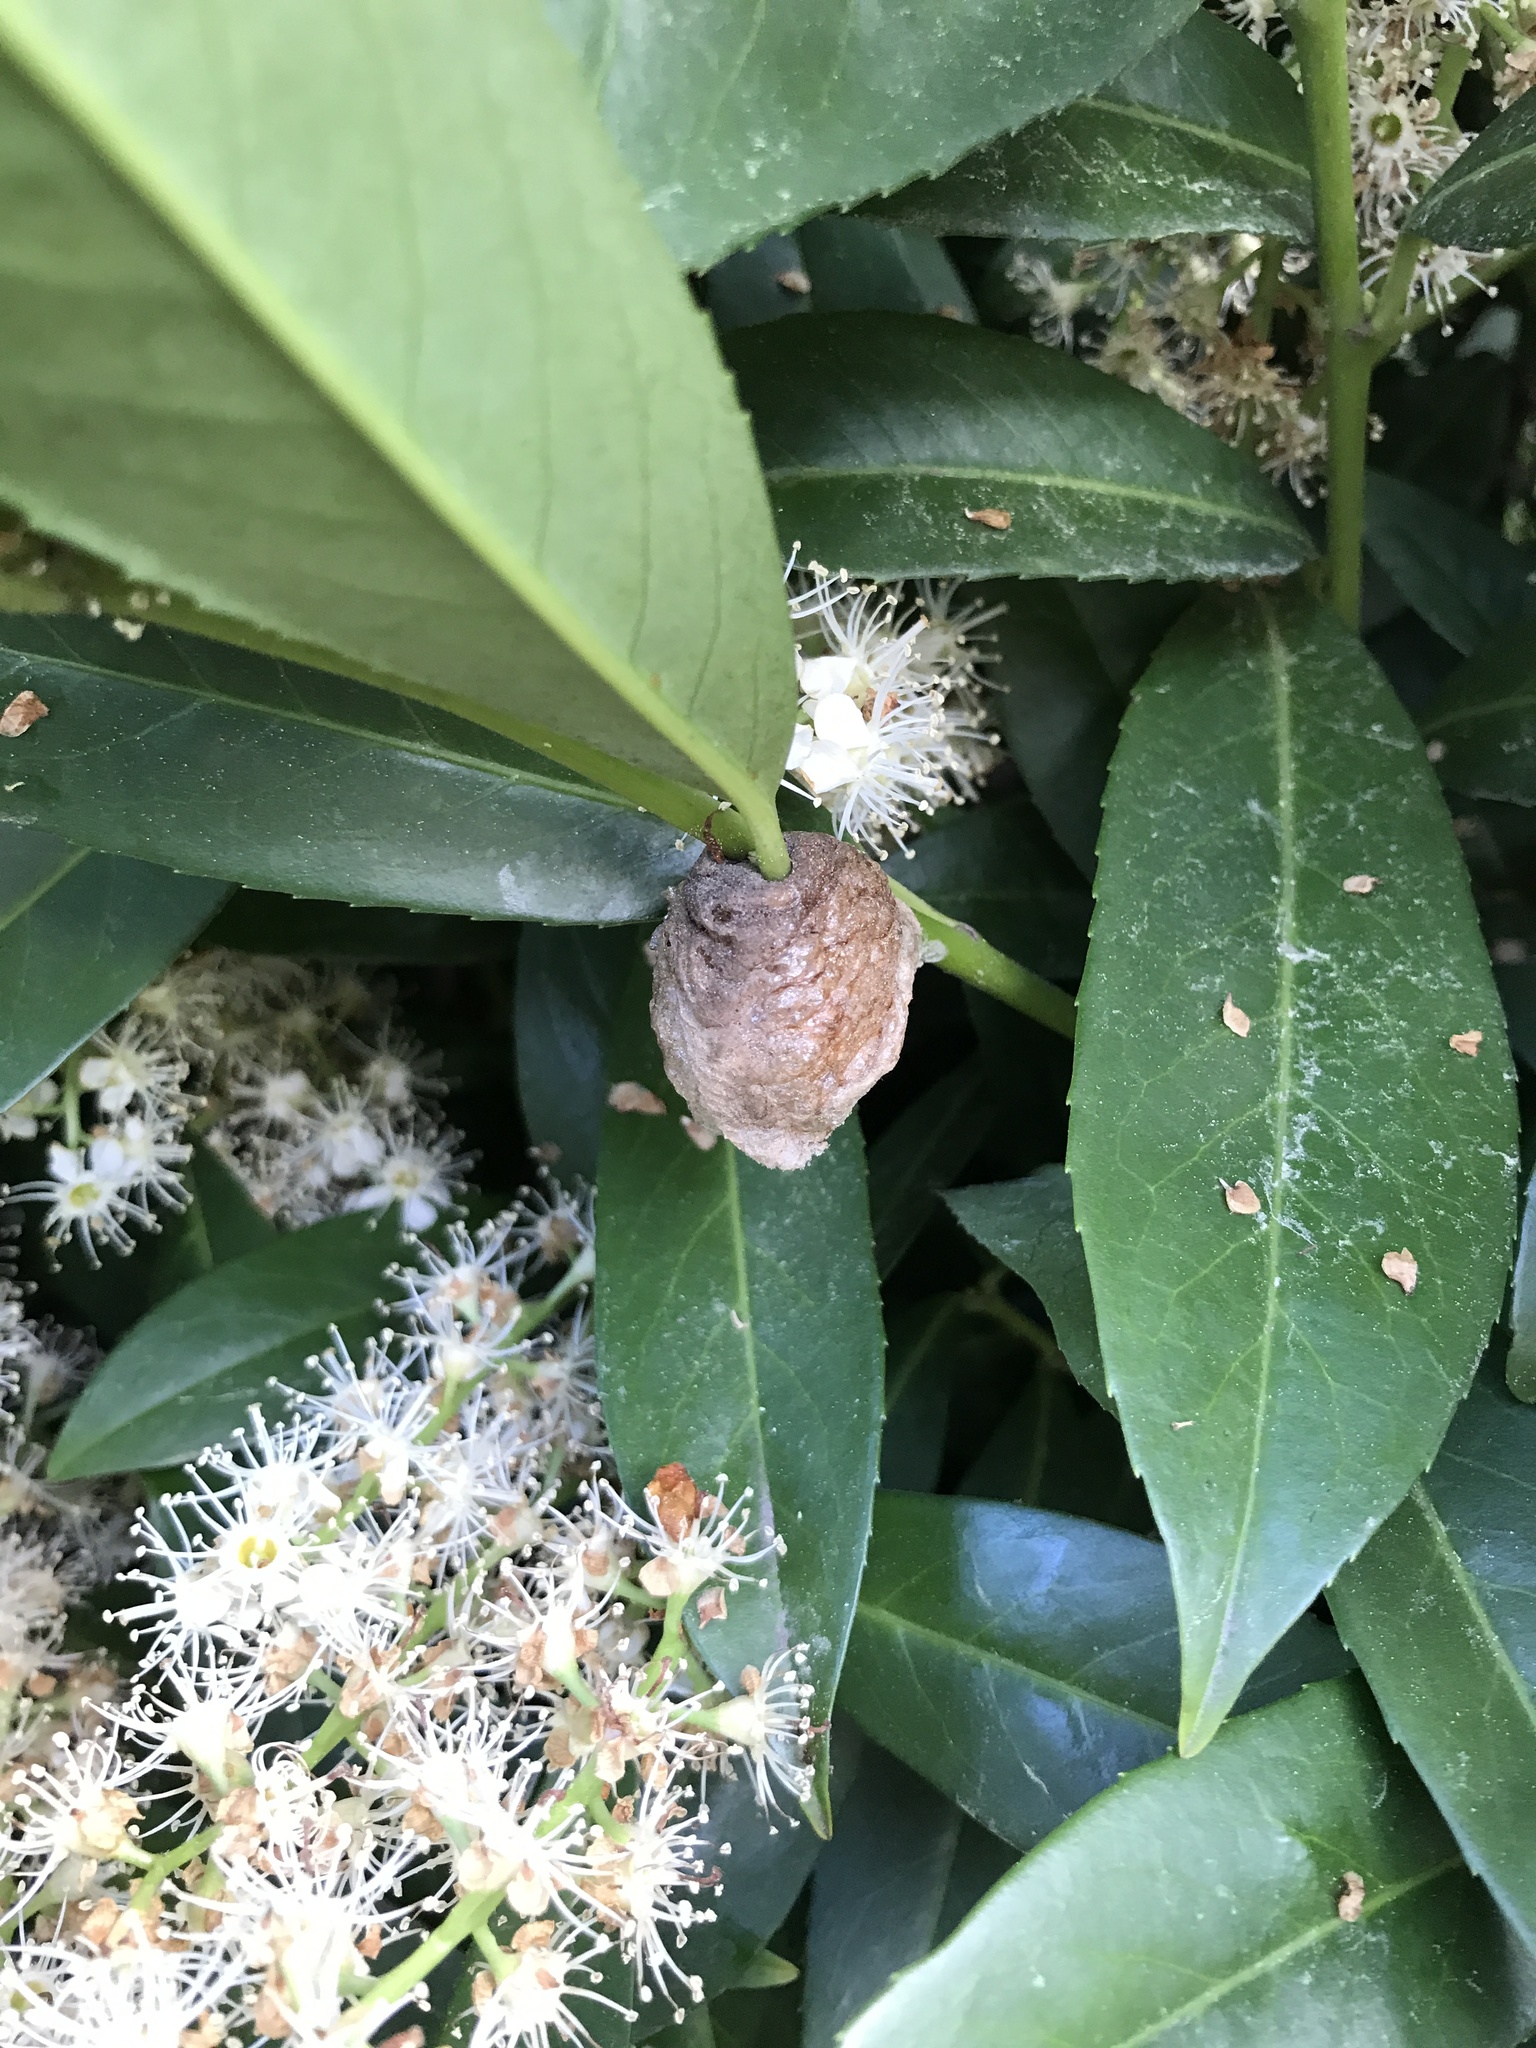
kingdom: Animalia
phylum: Arthropoda
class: Insecta
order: Mantodea
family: Mantidae
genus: Tenodera
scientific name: Tenodera sinensis
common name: Chinese mantis
